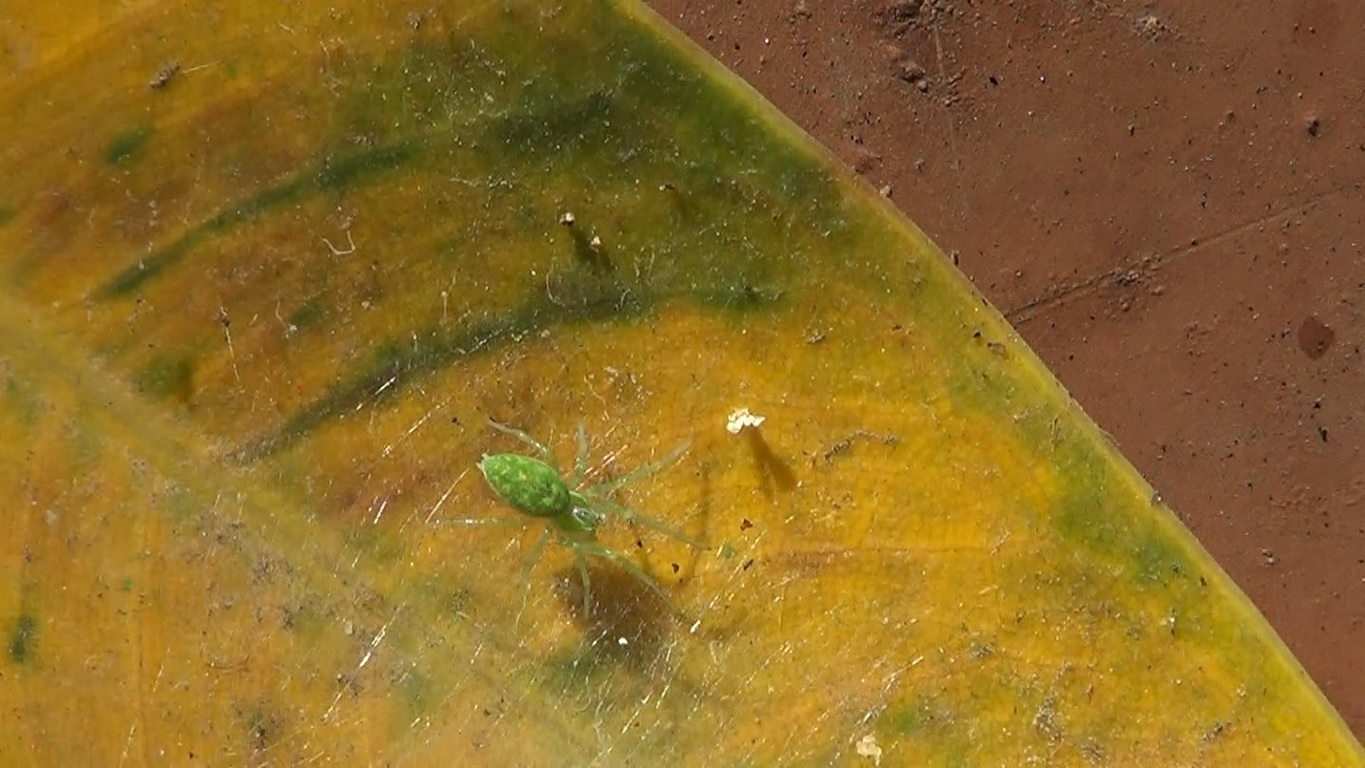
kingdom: Animalia
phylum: Arthropoda
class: Arachnida
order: Araneae
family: Dictynidae
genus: Nigma
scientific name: Nigma walckenaeri
